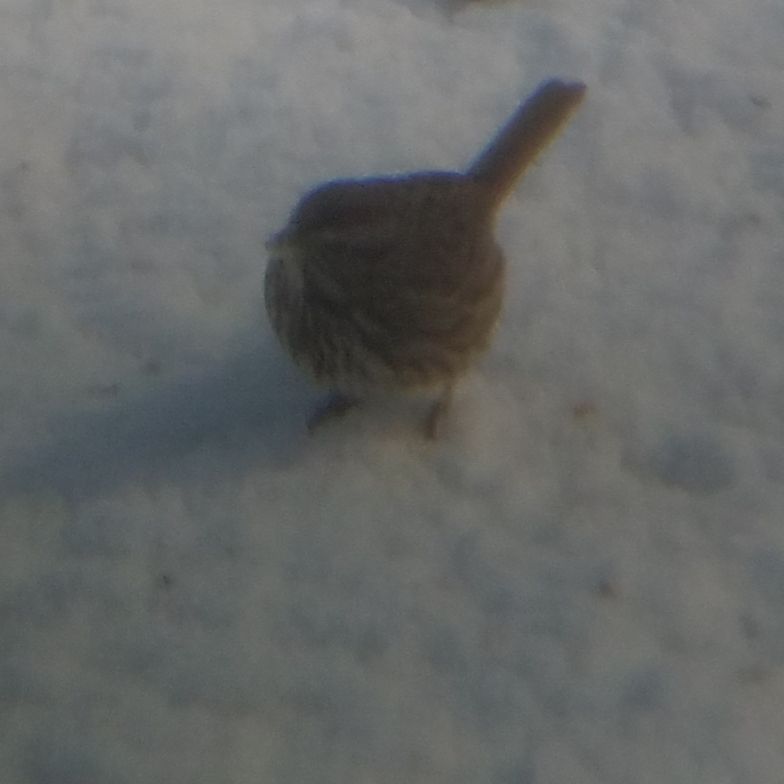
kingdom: Animalia
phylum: Chordata
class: Aves
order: Passeriformes
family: Passerellidae
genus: Melospiza
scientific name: Melospiza melodia
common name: Song sparrow
